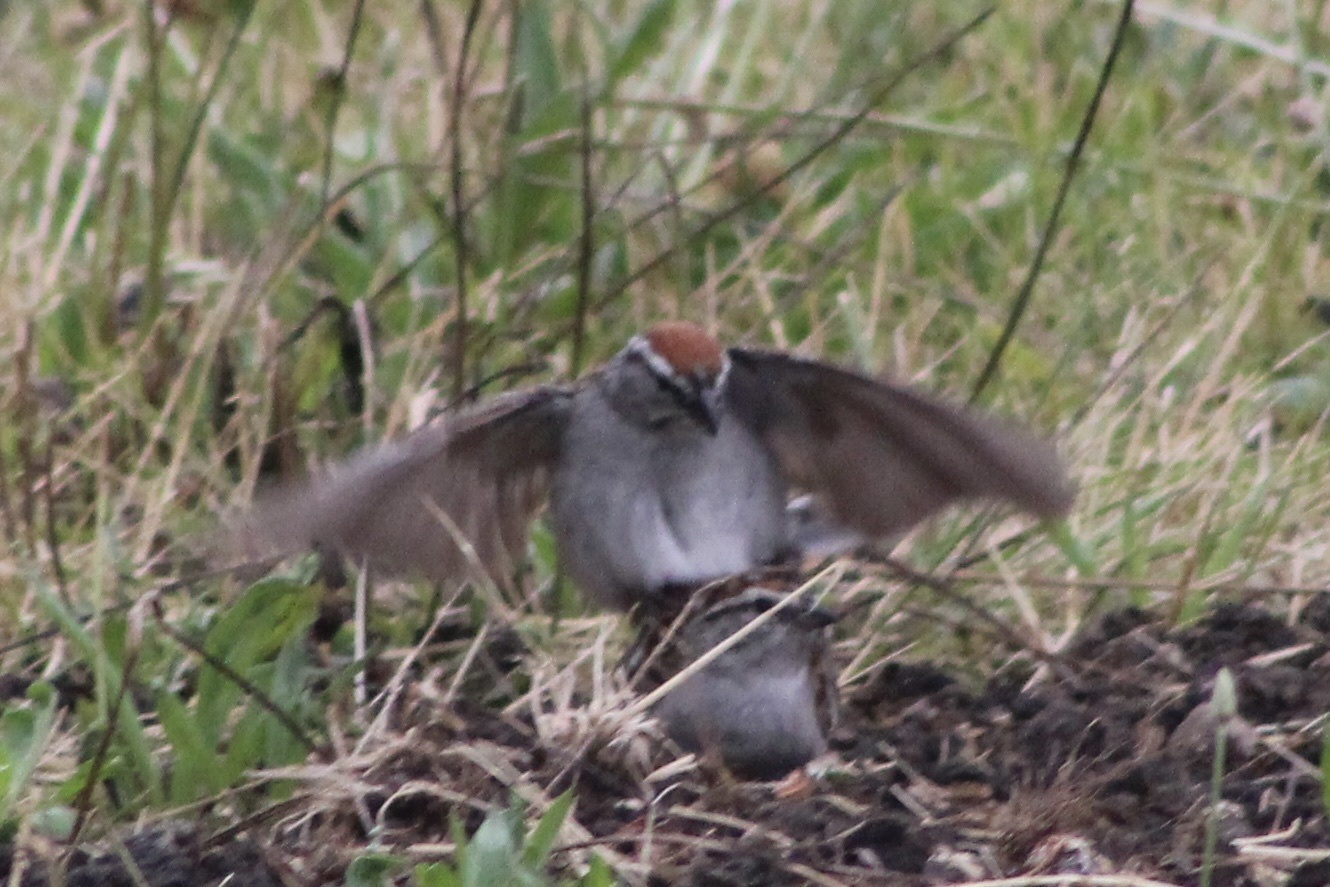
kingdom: Animalia
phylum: Chordata
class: Aves
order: Passeriformes
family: Passerellidae
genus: Spizella
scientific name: Spizella passerina
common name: Chipping sparrow
